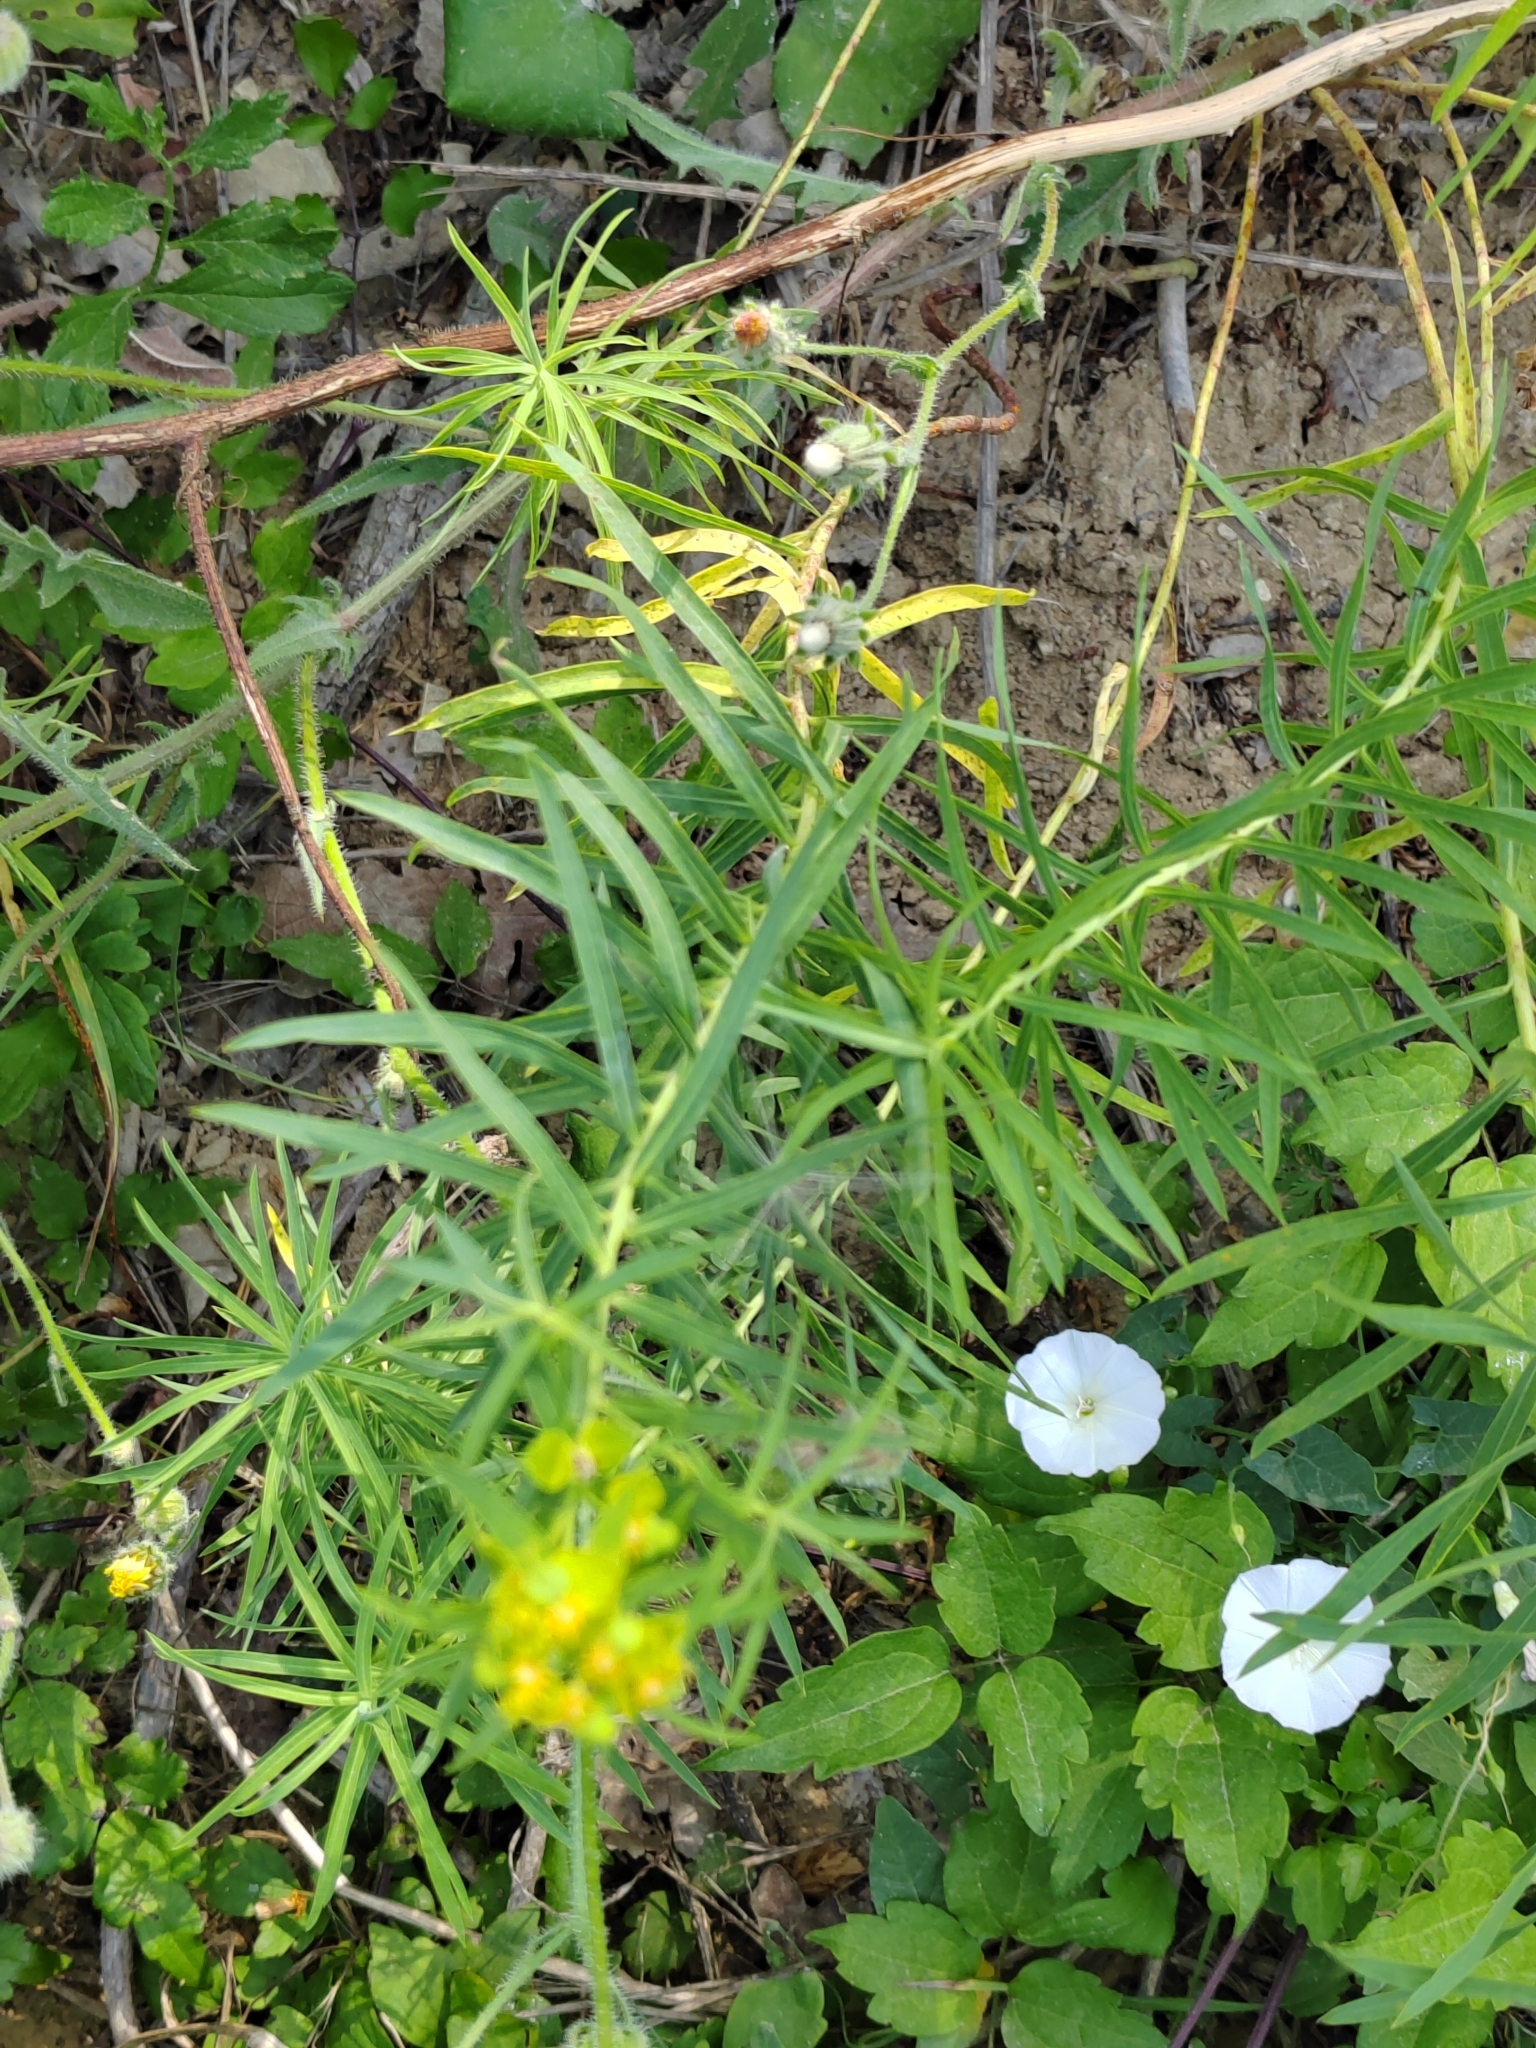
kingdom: Plantae
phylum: Tracheophyta
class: Magnoliopsida
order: Malpighiales
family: Euphorbiaceae
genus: Euphorbia
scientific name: Euphorbia virgata
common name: Leafy spurge
